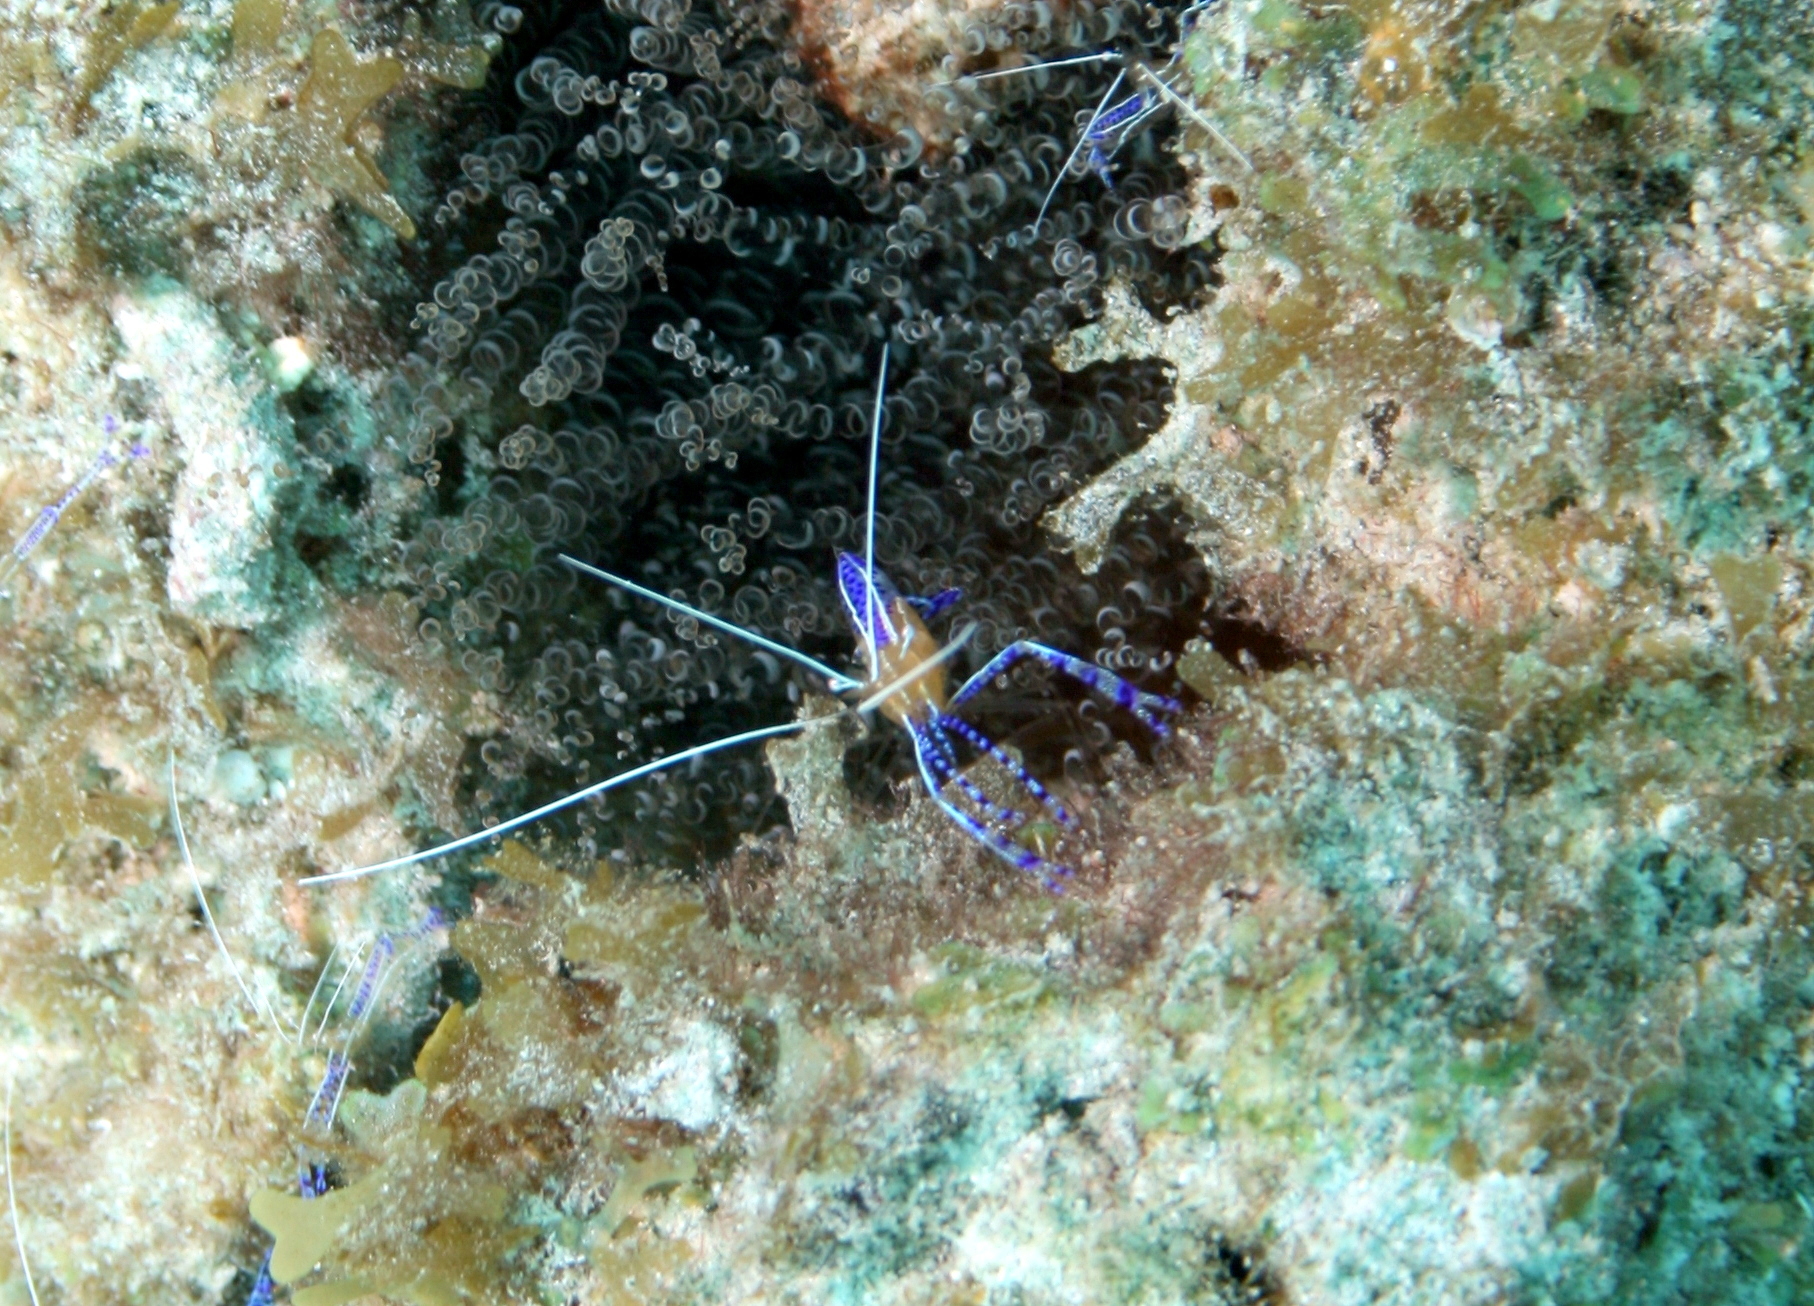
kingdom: Animalia
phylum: Arthropoda
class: Malacostraca
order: Decapoda
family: Palaemonidae
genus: Ancylomenes
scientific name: Ancylomenes pedersoni
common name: Pederson's cleaning shrimp
